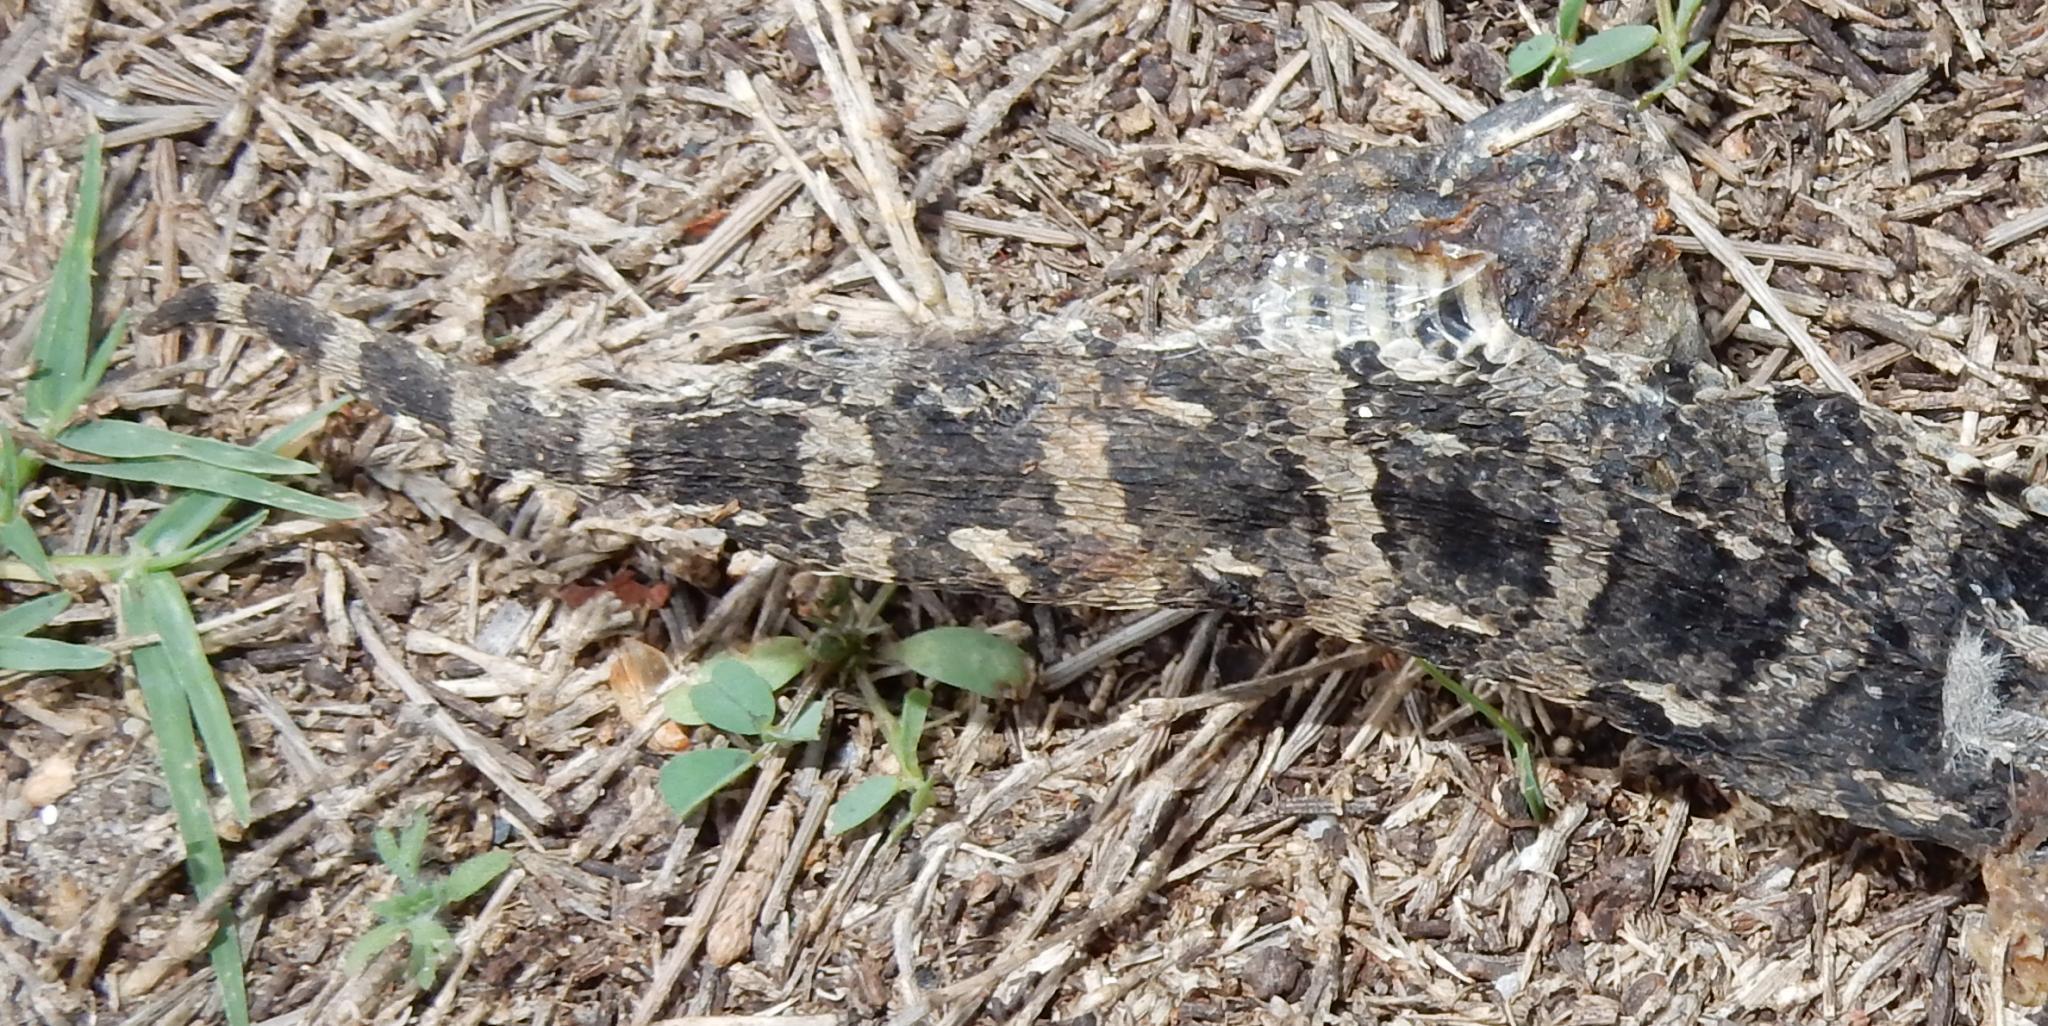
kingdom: Animalia
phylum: Chordata
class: Squamata
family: Viperidae
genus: Bitis
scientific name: Bitis arietans
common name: Puff adder
